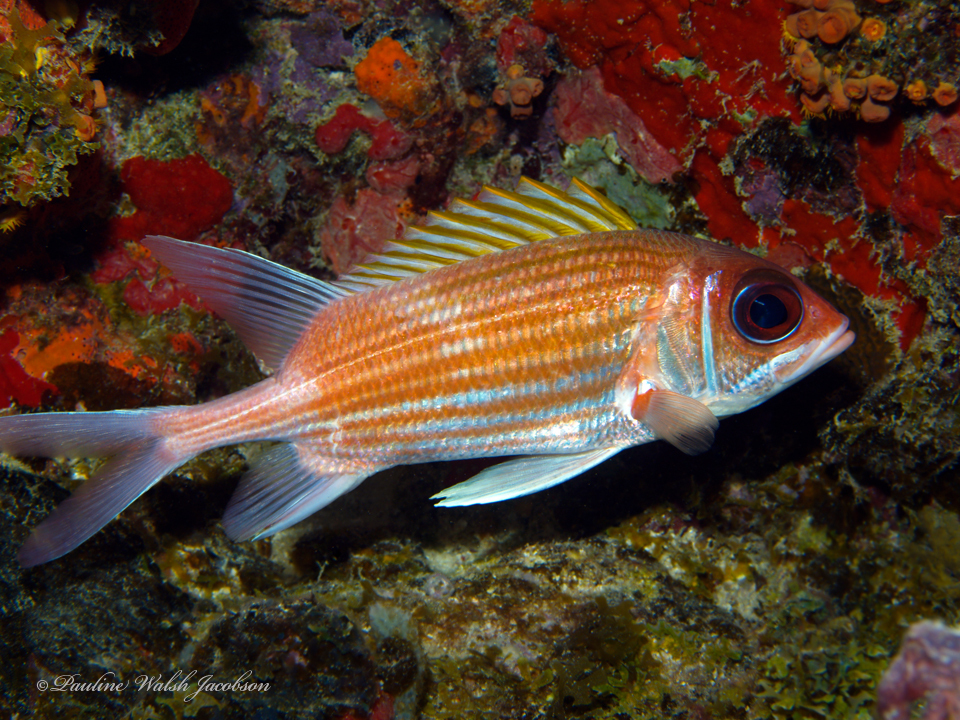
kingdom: Animalia
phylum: Chordata
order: Beryciformes
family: Holocentridae
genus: Holocentrus
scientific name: Holocentrus adscensionis
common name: Squirrelfish
